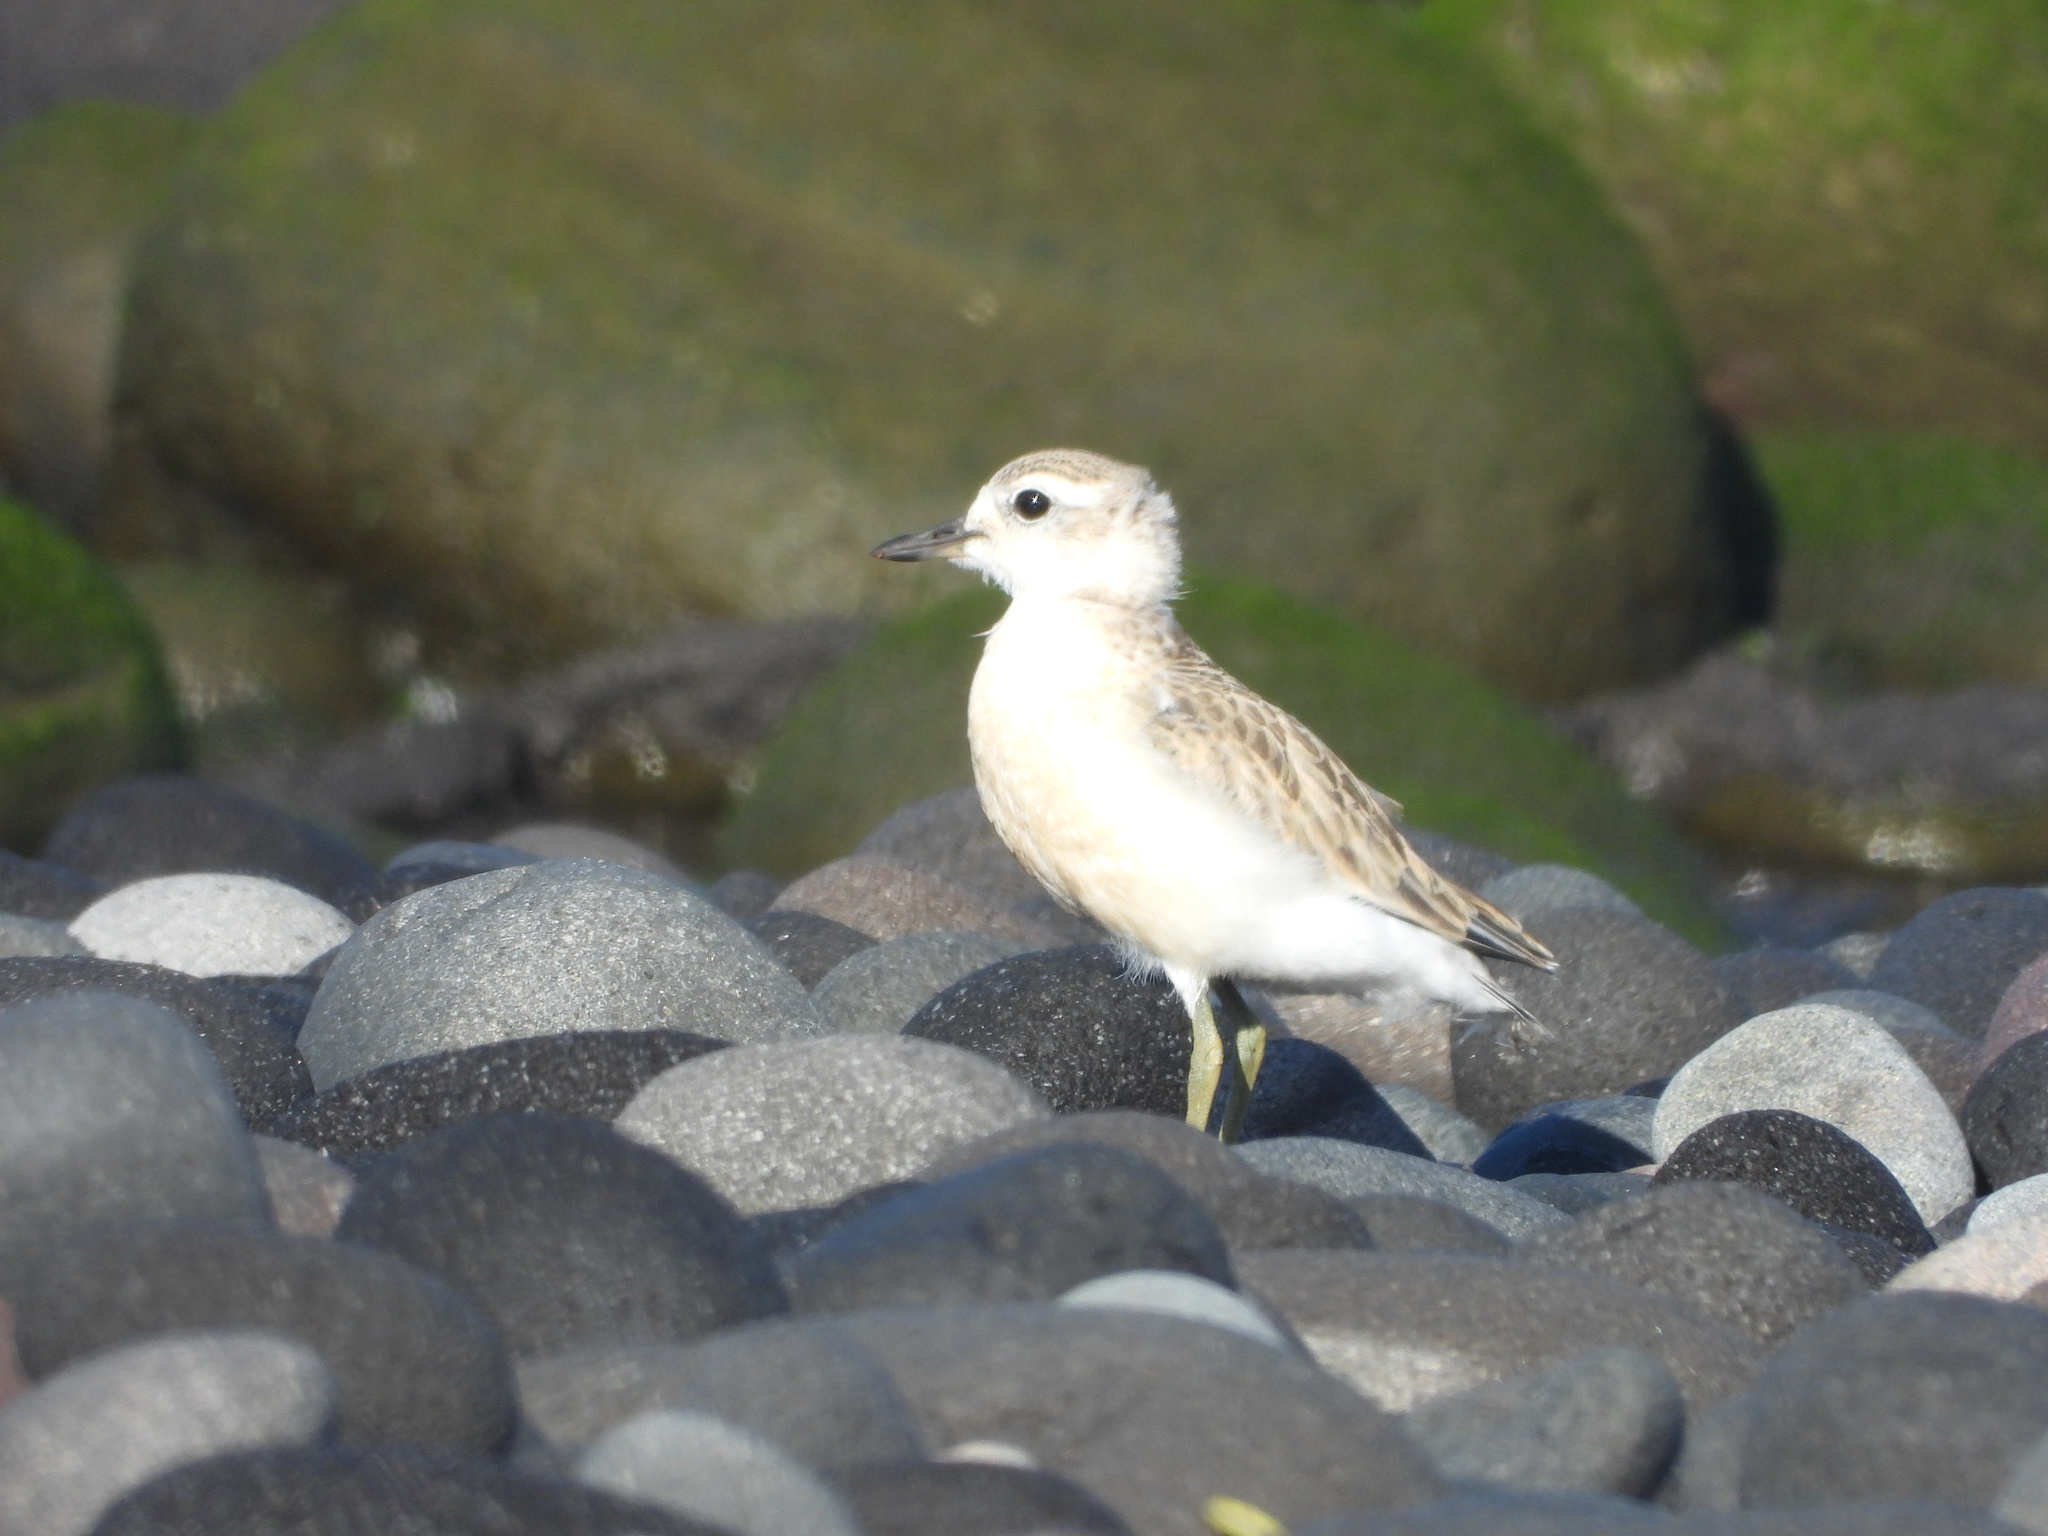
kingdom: Animalia
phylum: Chordata
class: Aves
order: Charadriiformes
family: Charadriidae
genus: Anarhynchus
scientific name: Anarhynchus
